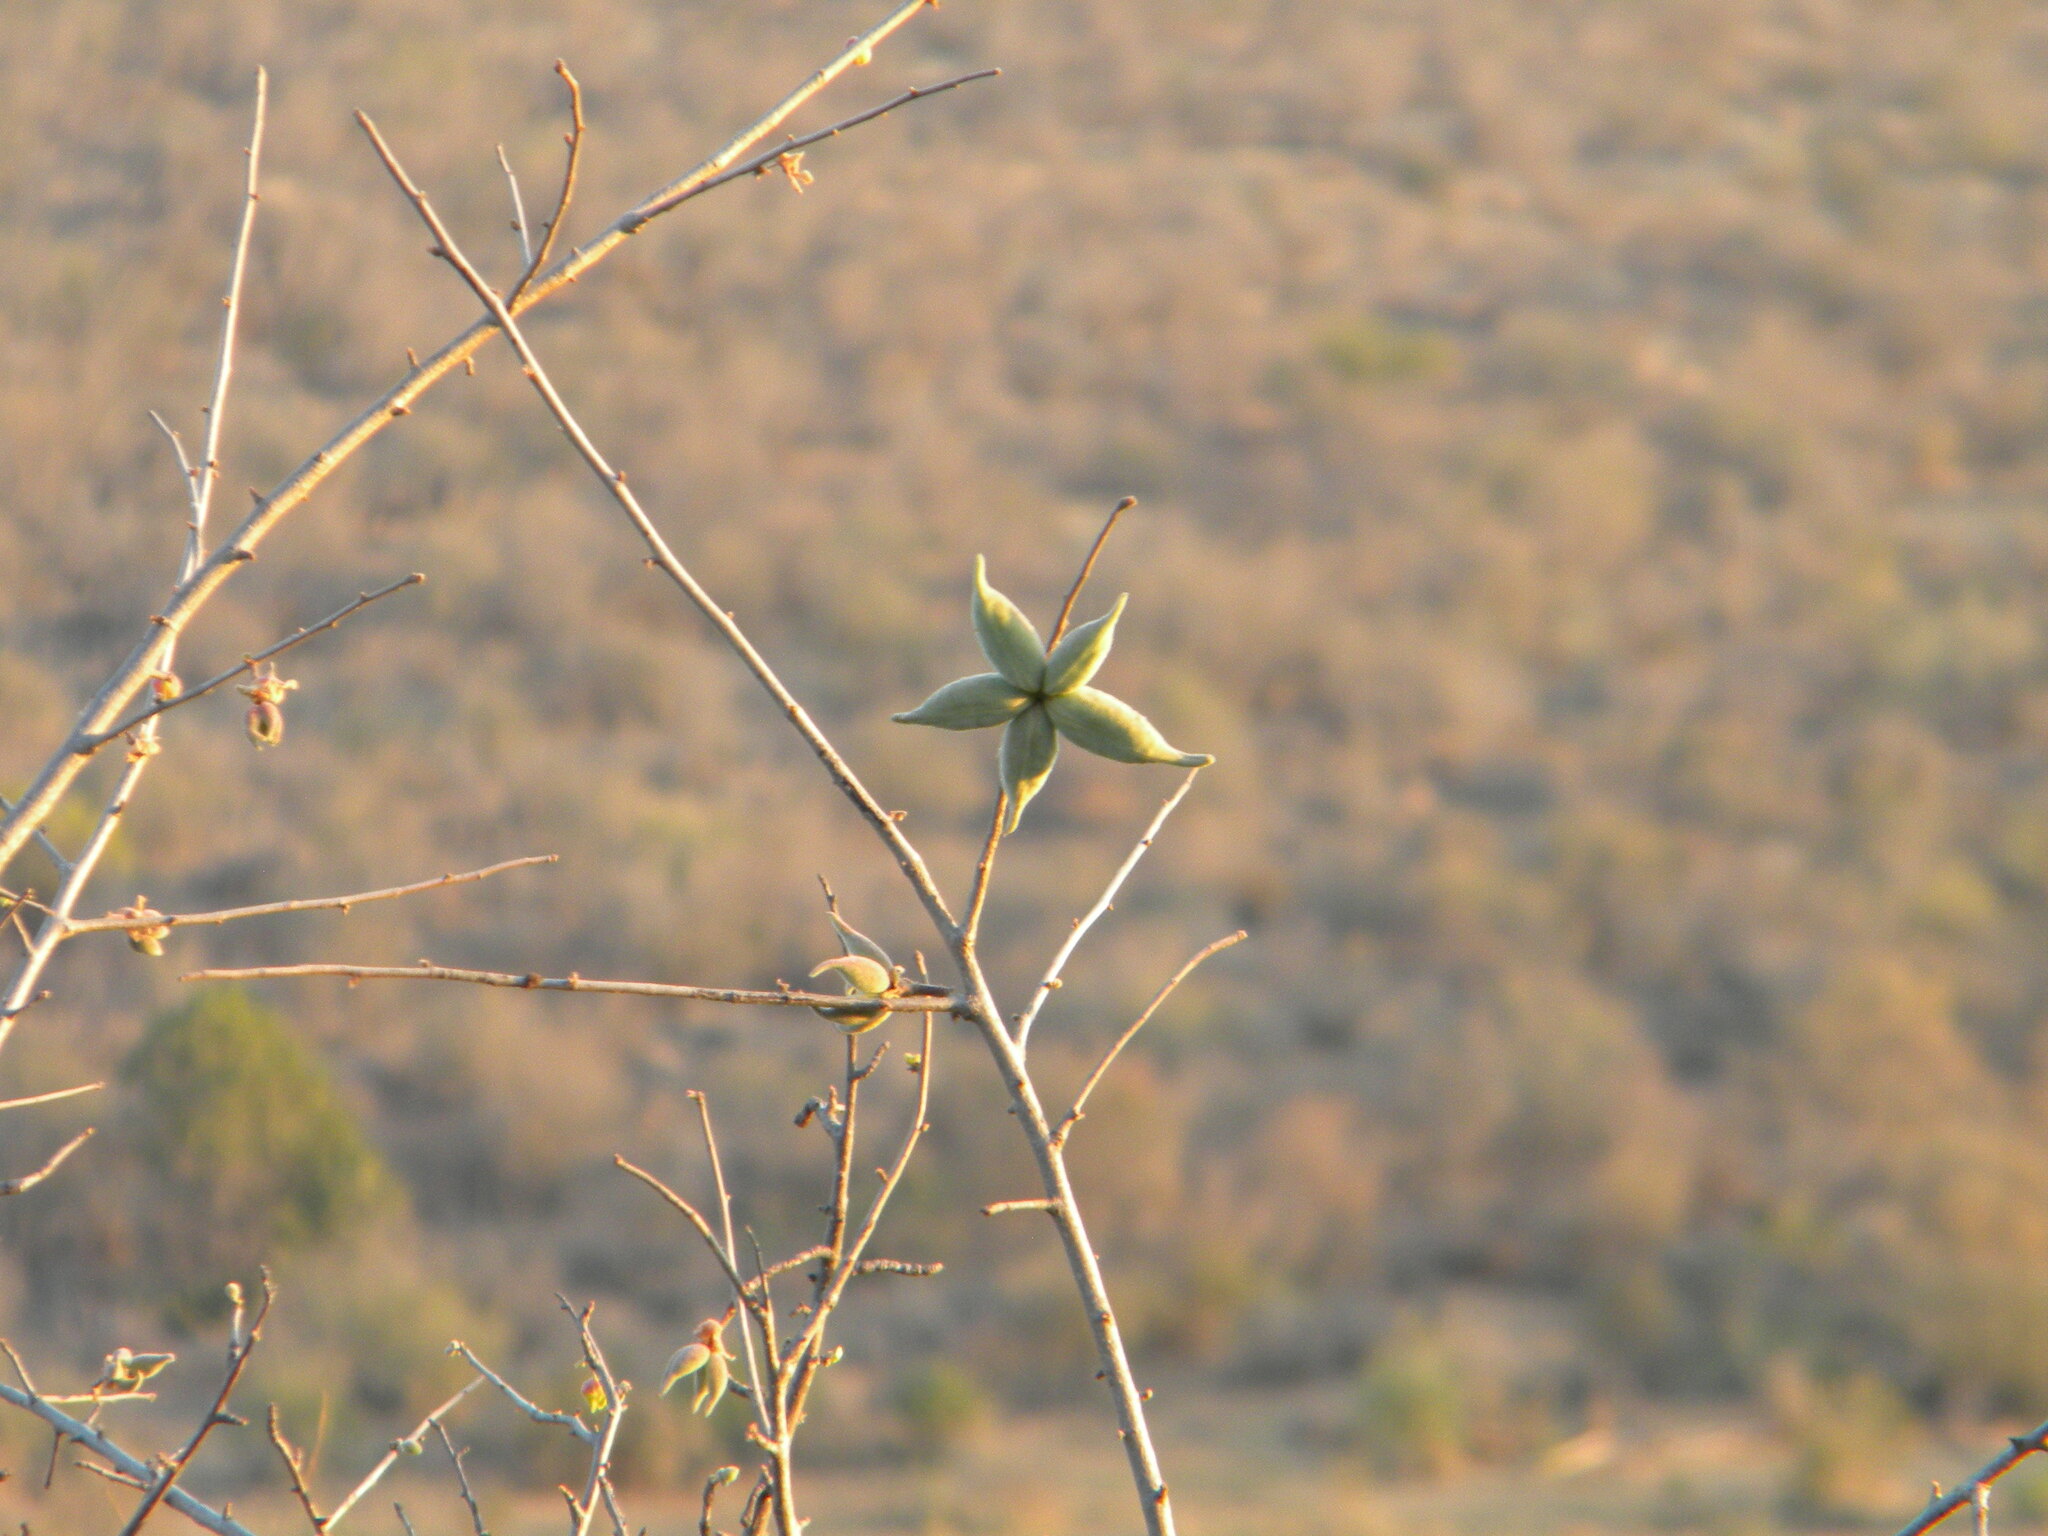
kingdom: Plantae
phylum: Tracheophyta
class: Magnoliopsida
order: Malvales
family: Malvaceae
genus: Sterculia
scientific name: Sterculia rogersii
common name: Star-chestnut
